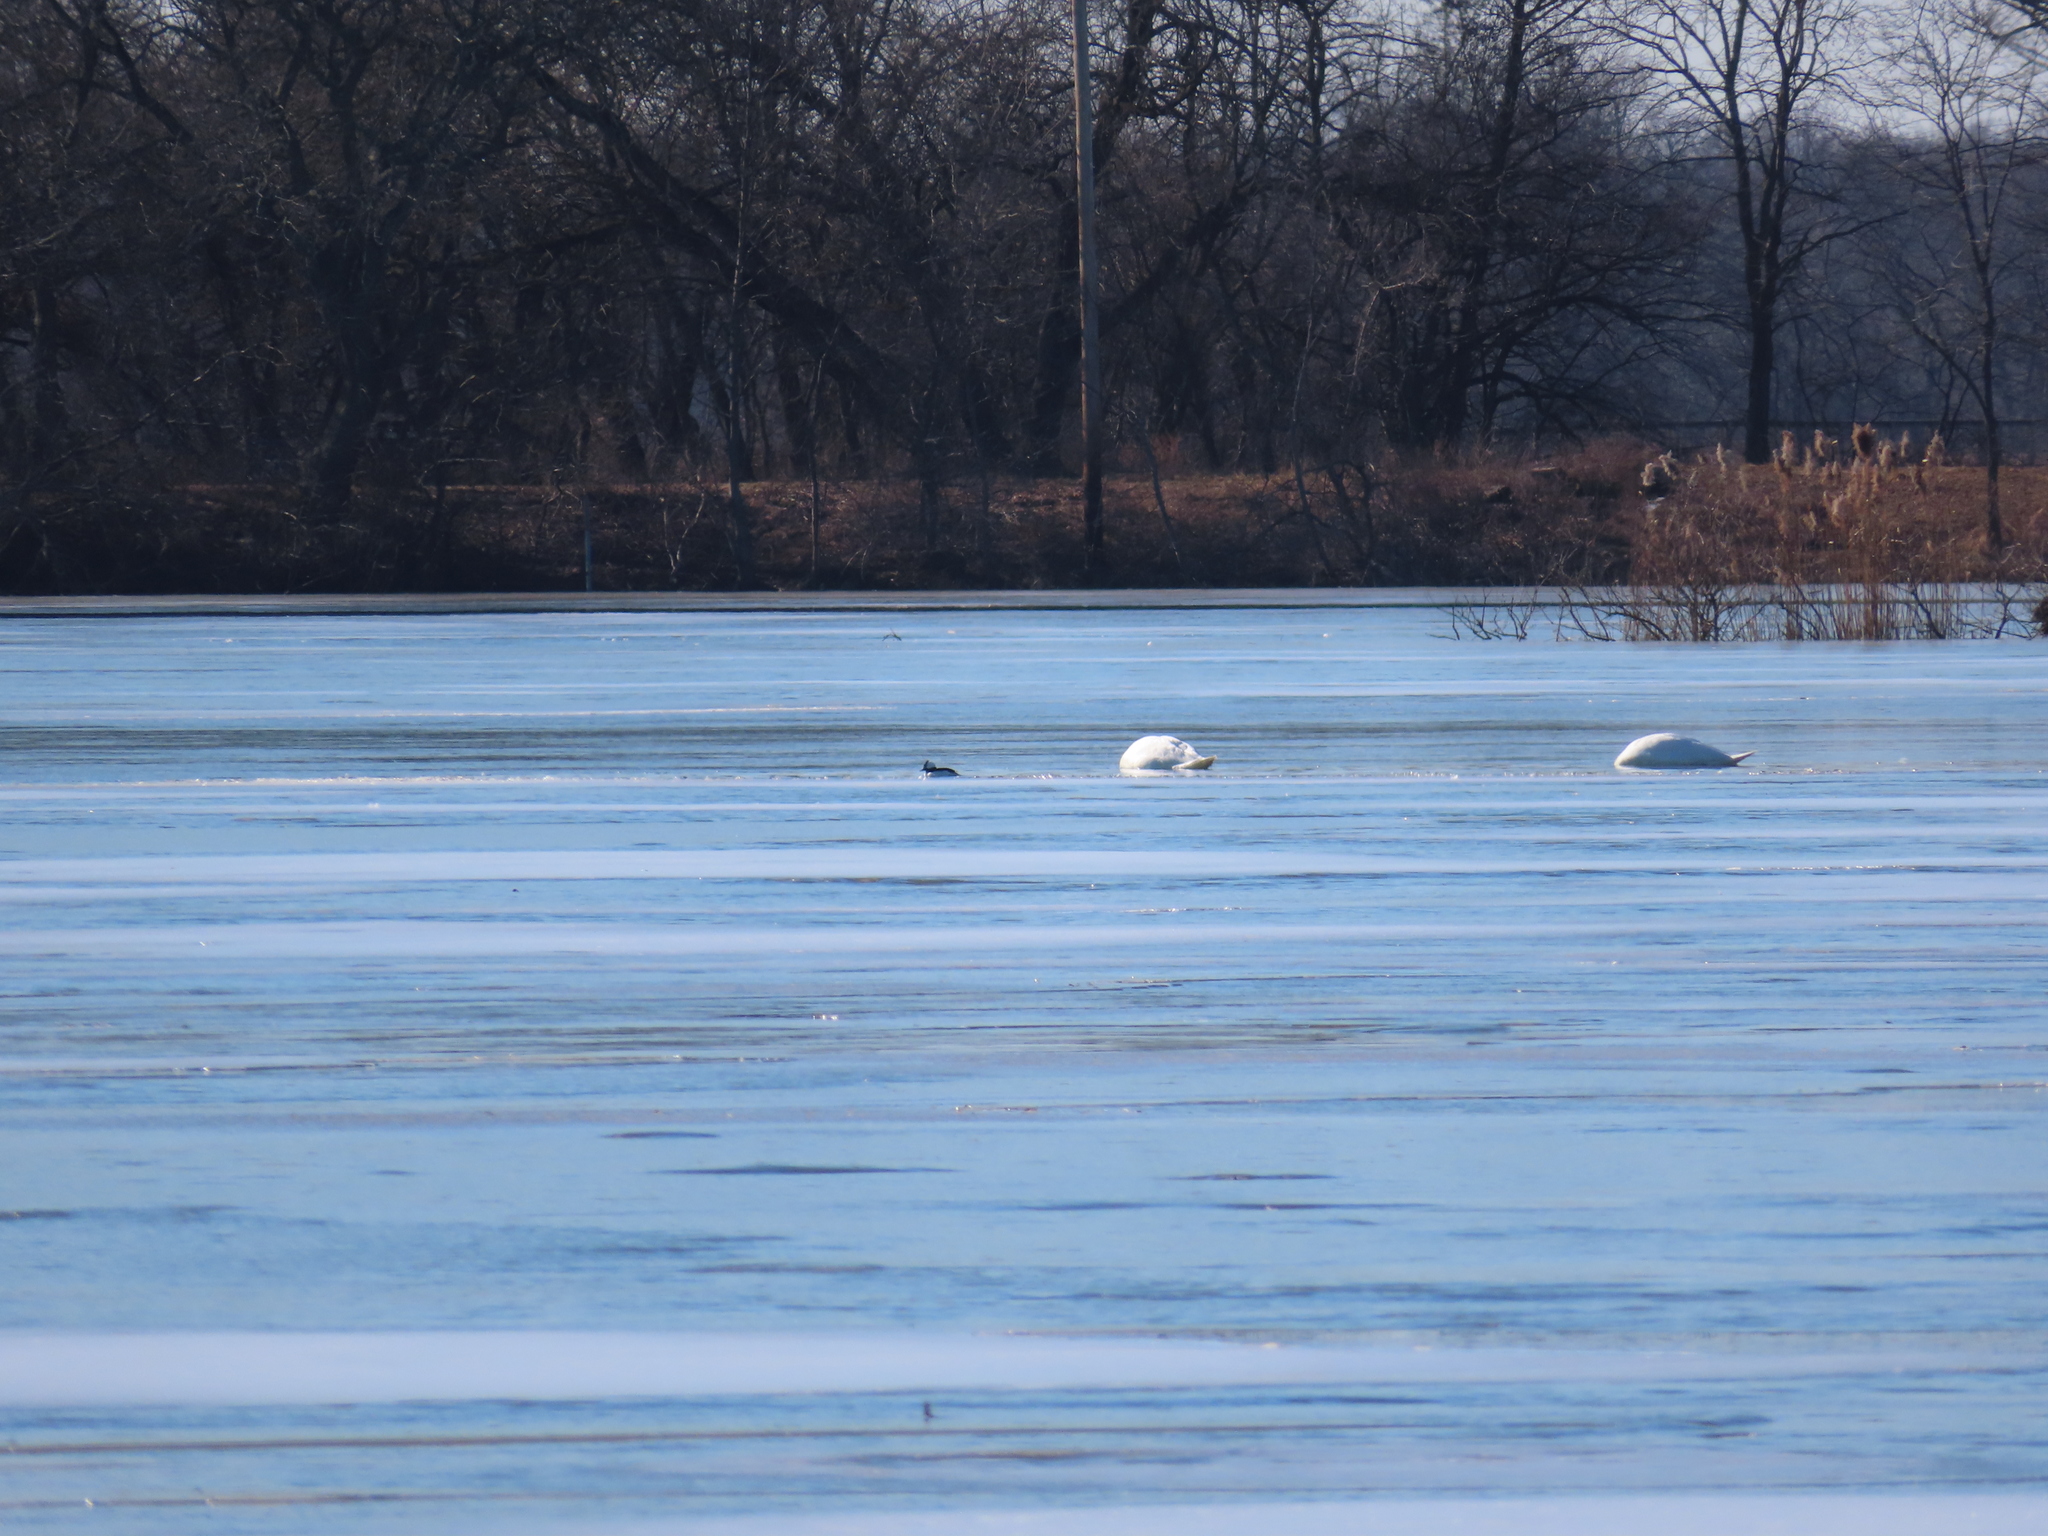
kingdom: Animalia
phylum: Chordata
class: Aves
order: Anseriformes
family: Anatidae
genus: Bucephala
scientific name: Bucephala albeola
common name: Bufflehead
